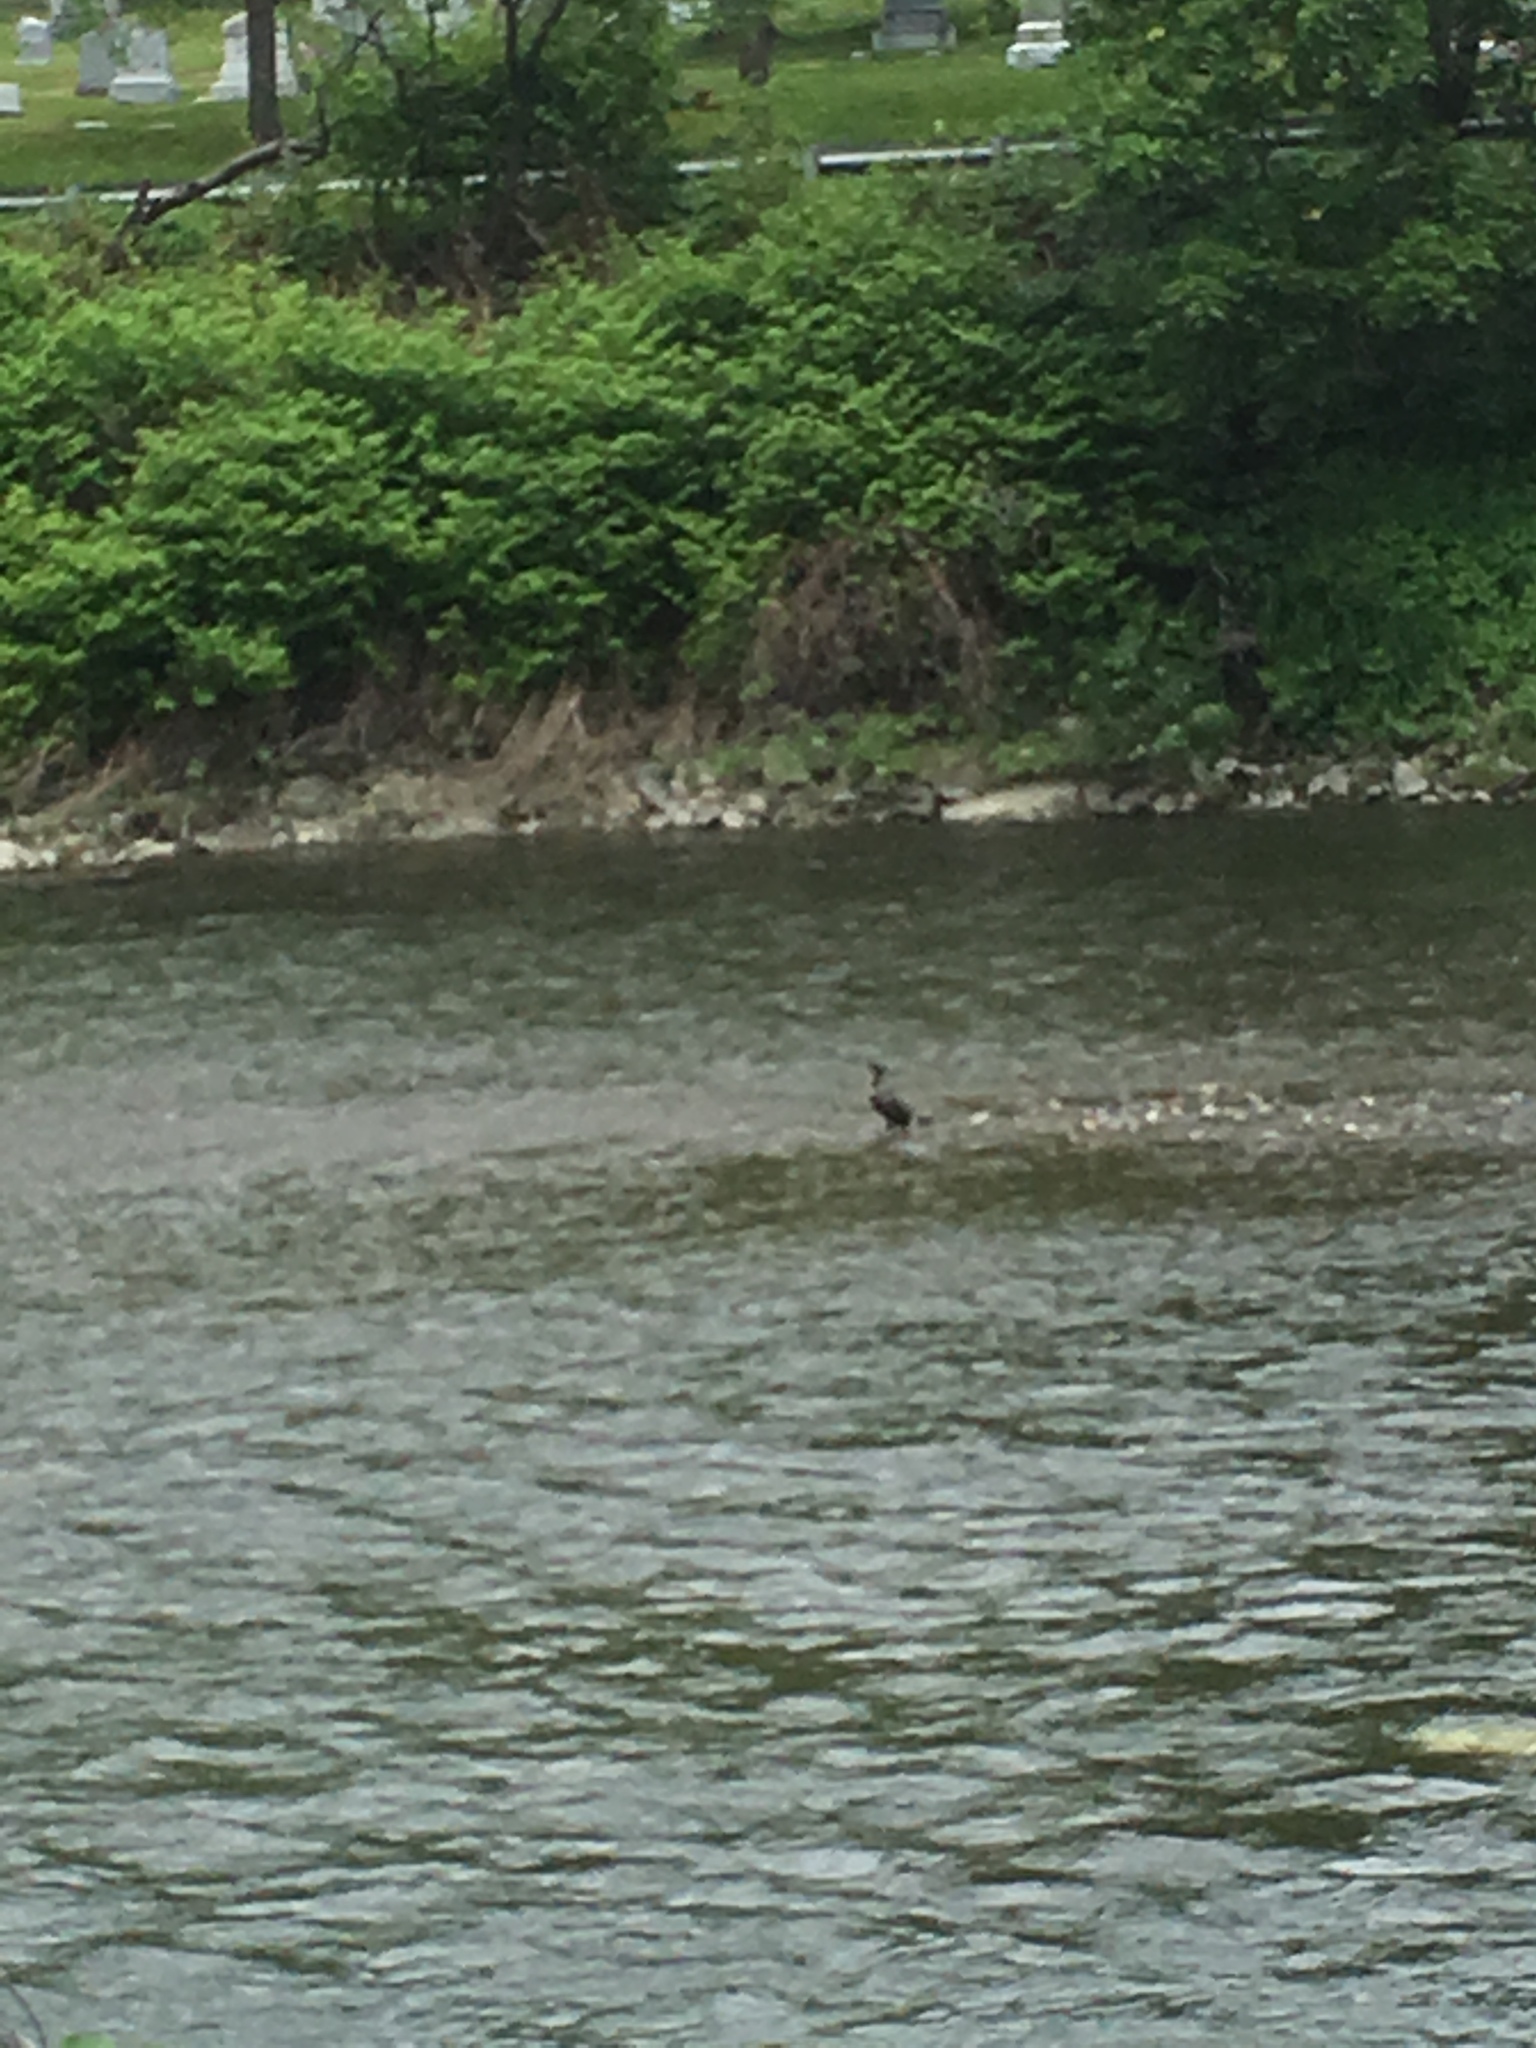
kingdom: Animalia
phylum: Chordata
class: Aves
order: Suliformes
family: Phalacrocoracidae
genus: Phalacrocorax
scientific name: Phalacrocorax auritus
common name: Double-crested cormorant
